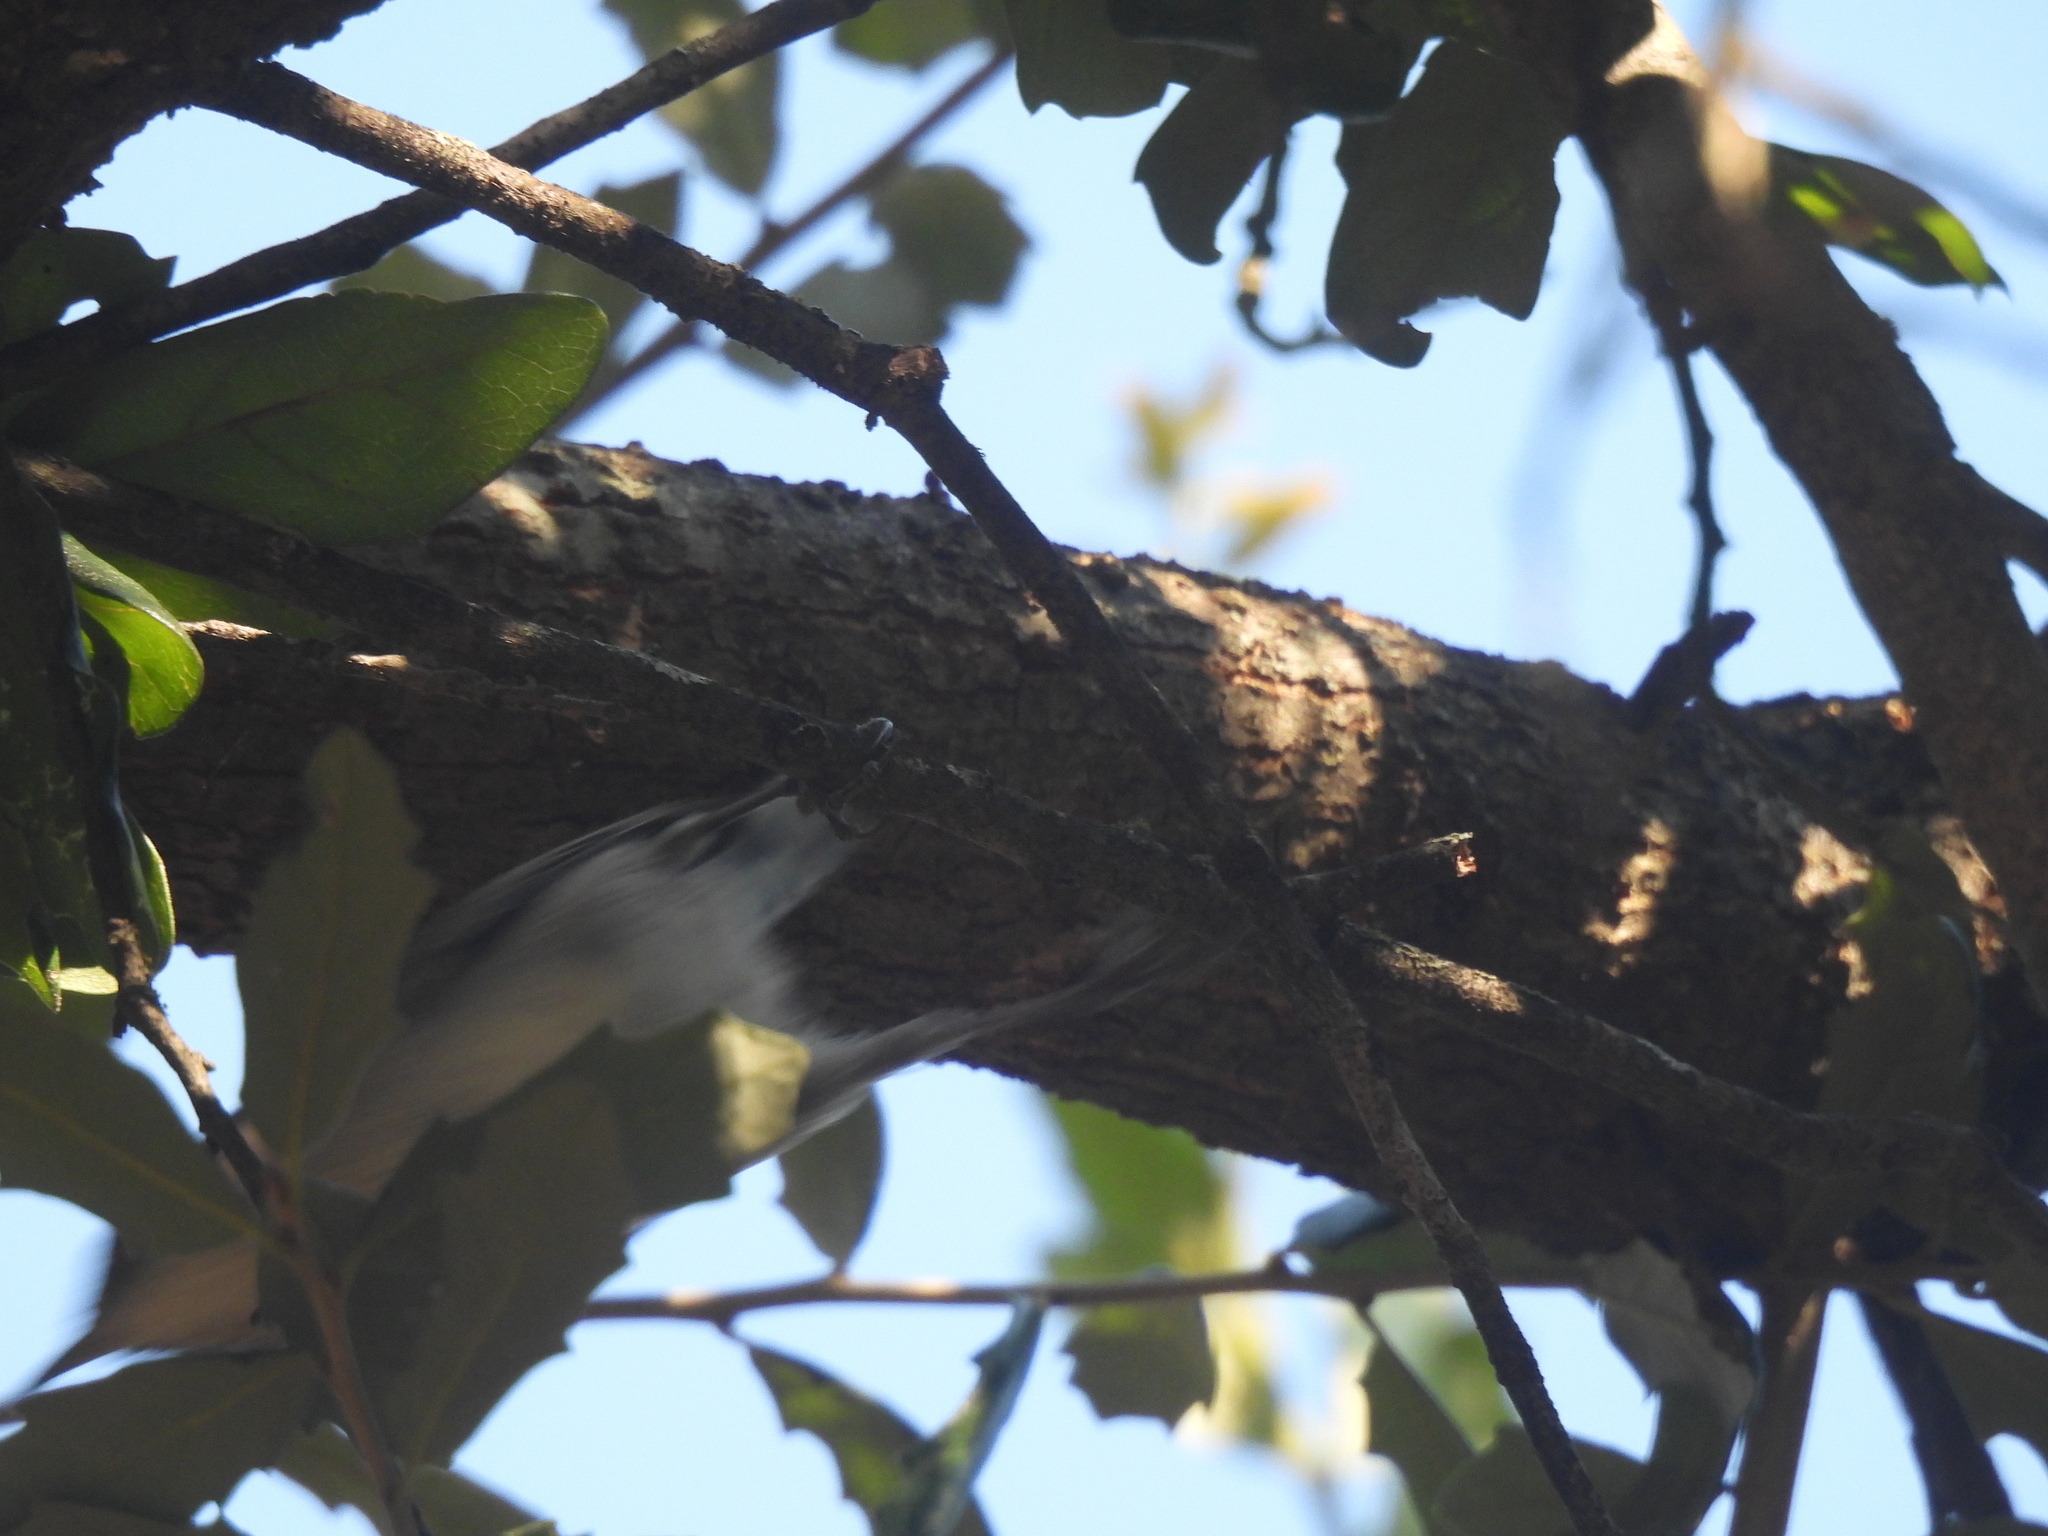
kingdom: Animalia
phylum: Chordata
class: Aves
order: Passeriformes
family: Troglodytidae
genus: Thryomanes
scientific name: Thryomanes bewickii
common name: Bewick's wren
